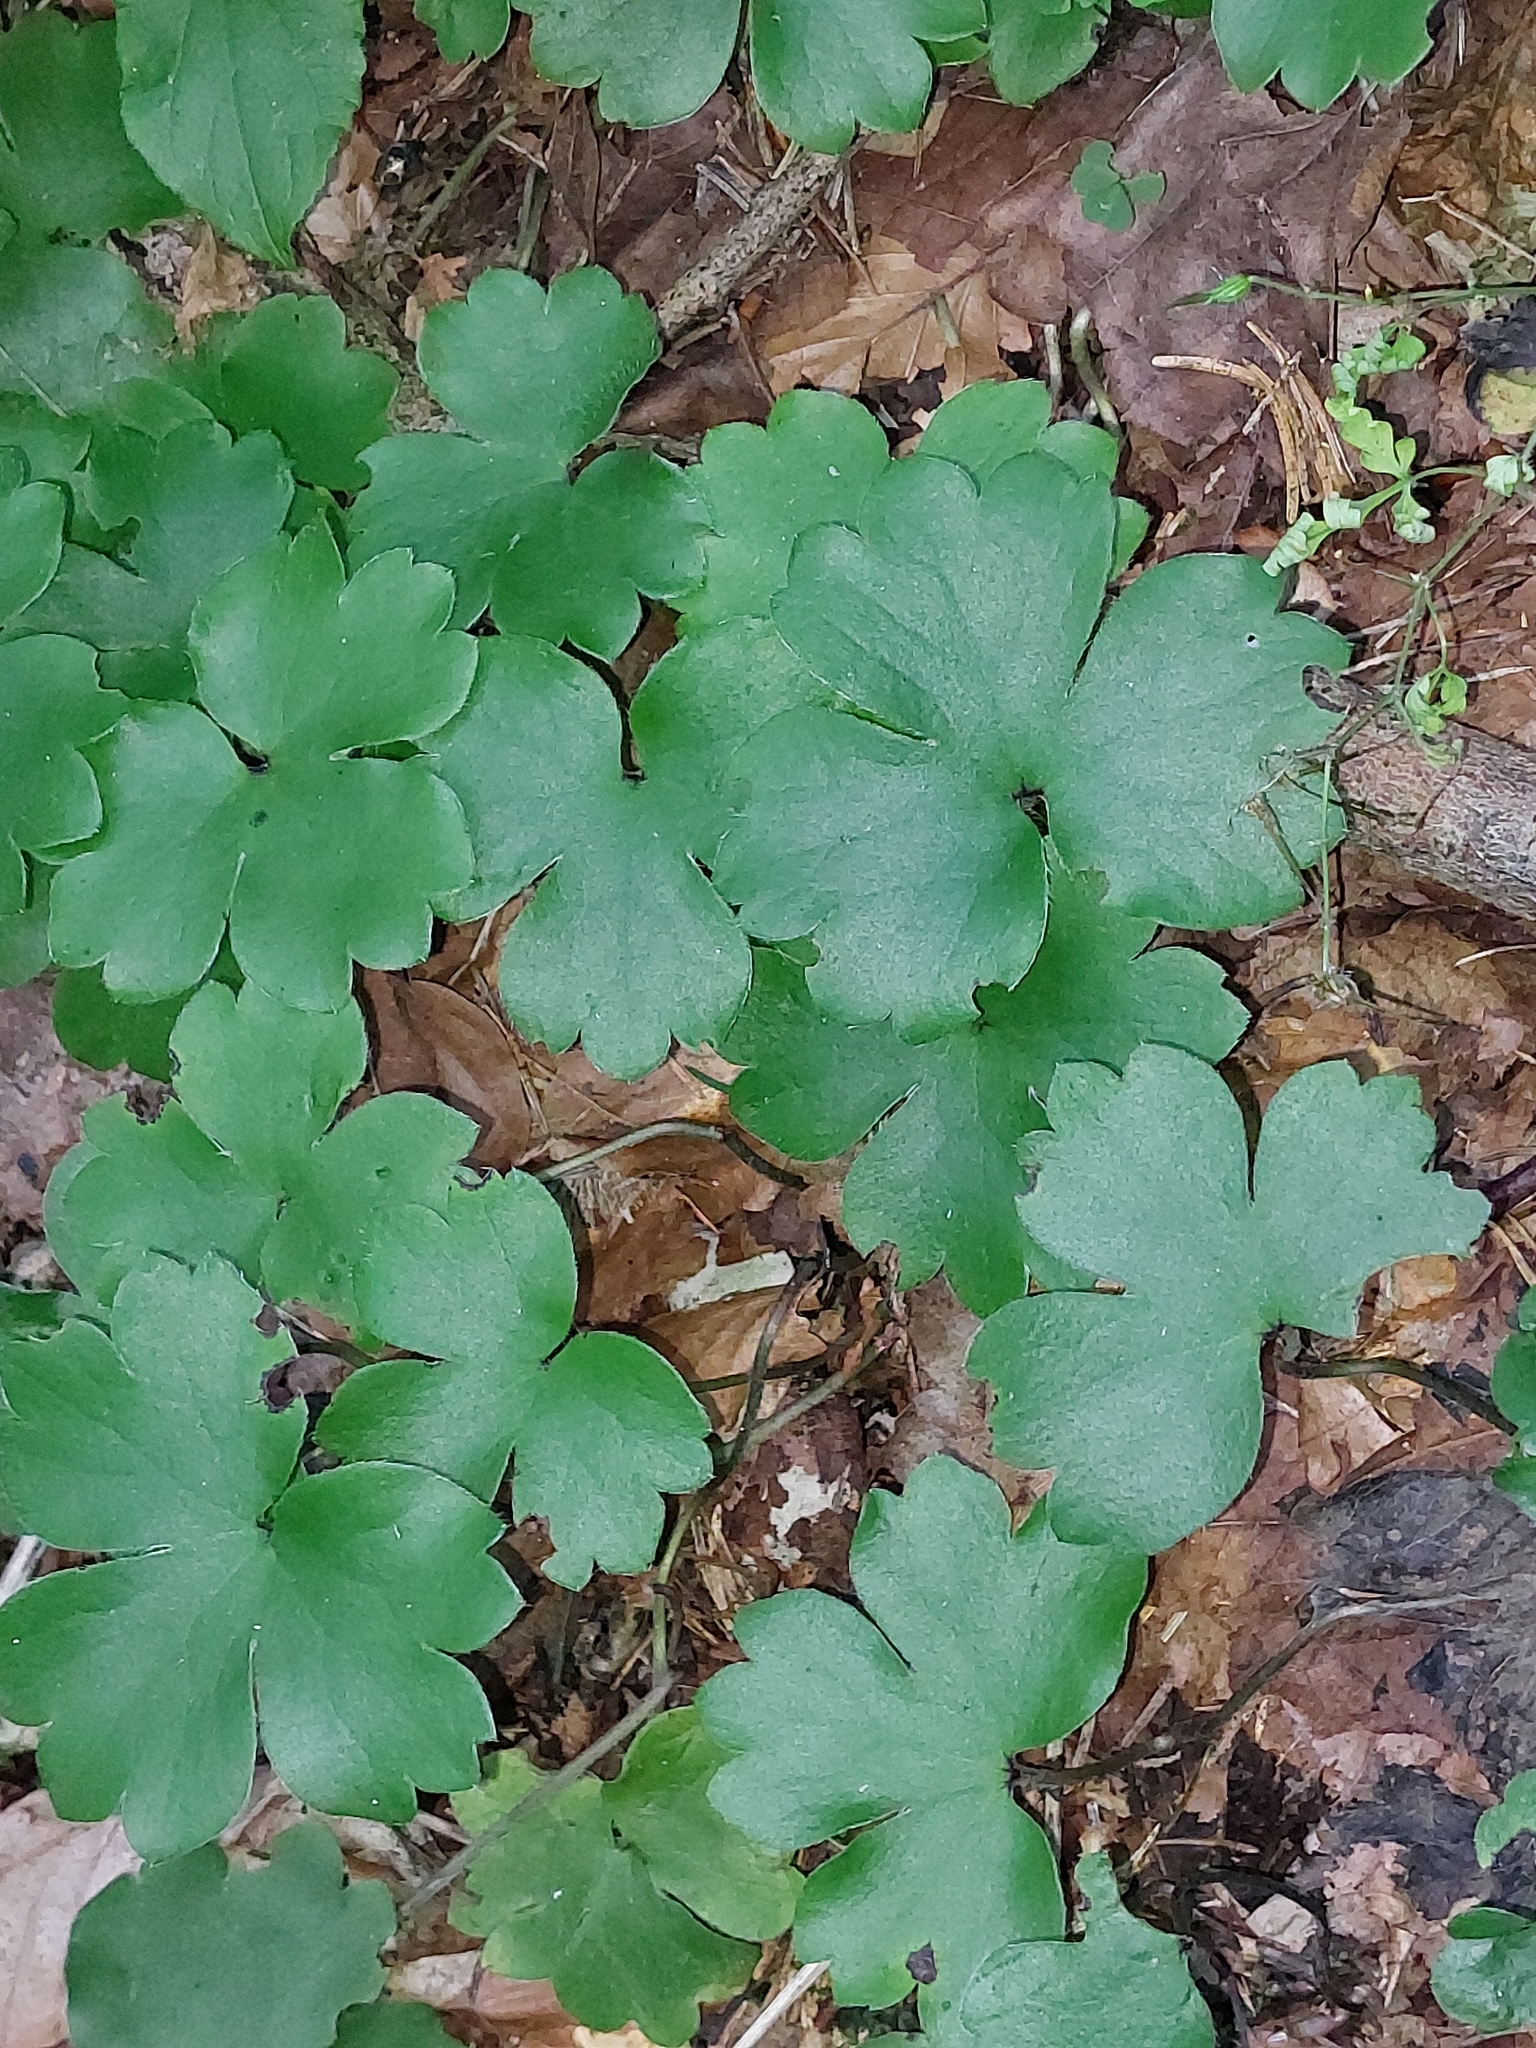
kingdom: Plantae
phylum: Tracheophyta
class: Magnoliopsida
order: Ranunculales
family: Ranunculaceae
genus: Hepatica
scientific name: Hepatica transsilvanica
